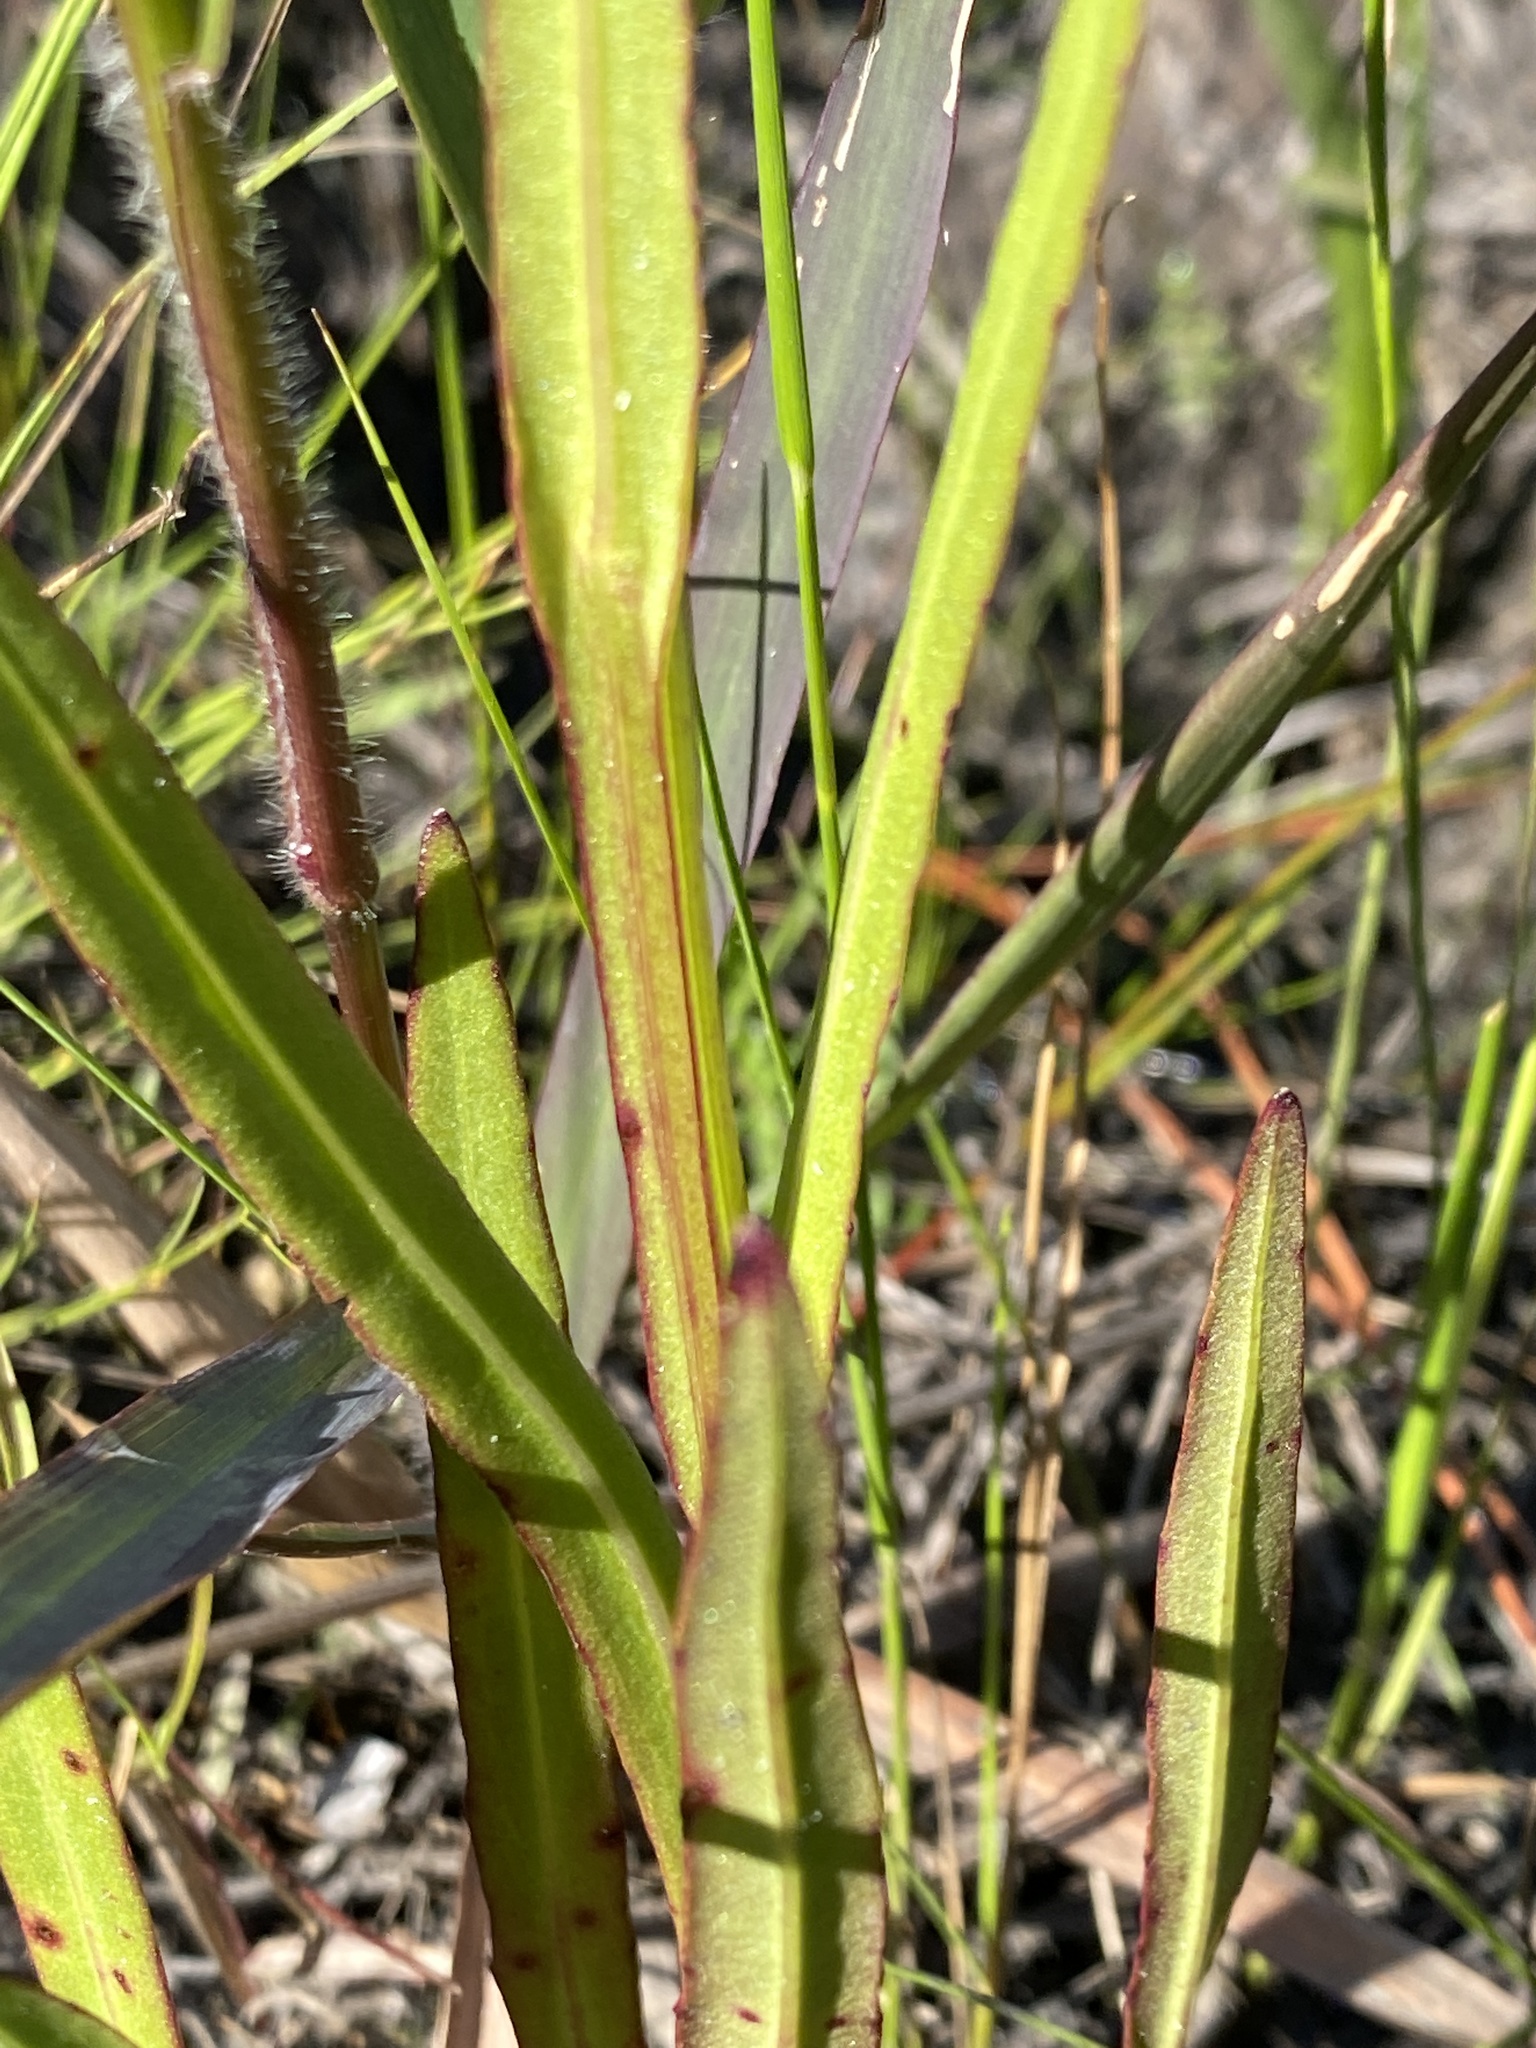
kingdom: Plantae
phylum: Tracheophyta
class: Magnoliopsida
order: Asterales
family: Asteraceae
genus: Helenium
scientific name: Helenium vernale
